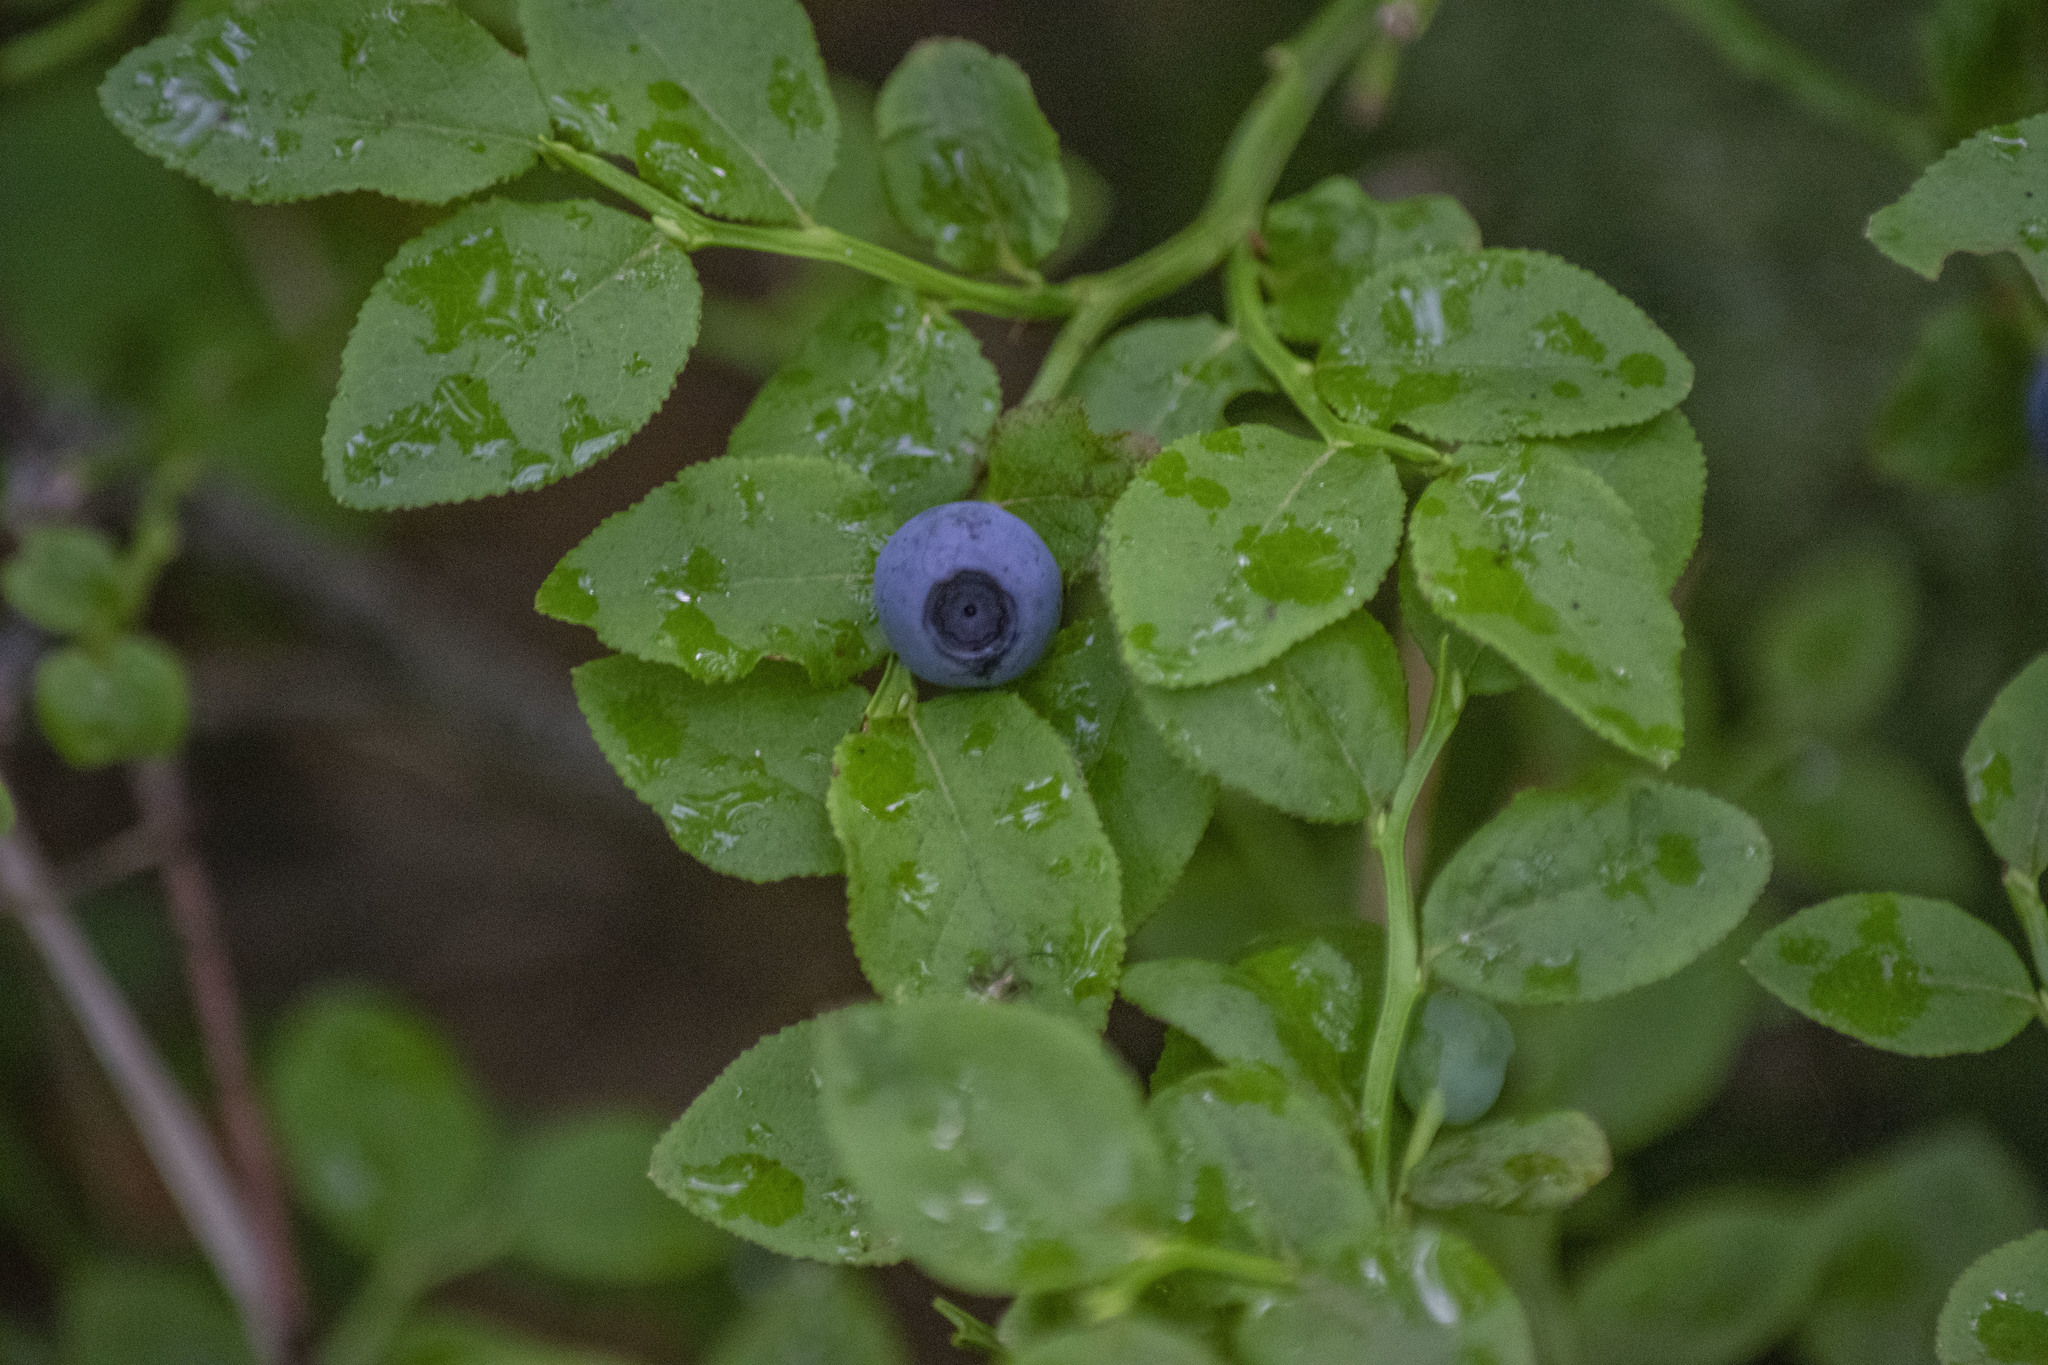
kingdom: Plantae
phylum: Tracheophyta
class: Magnoliopsida
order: Ericales
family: Ericaceae
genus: Vaccinium
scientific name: Vaccinium myrtillus
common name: Bilberry
